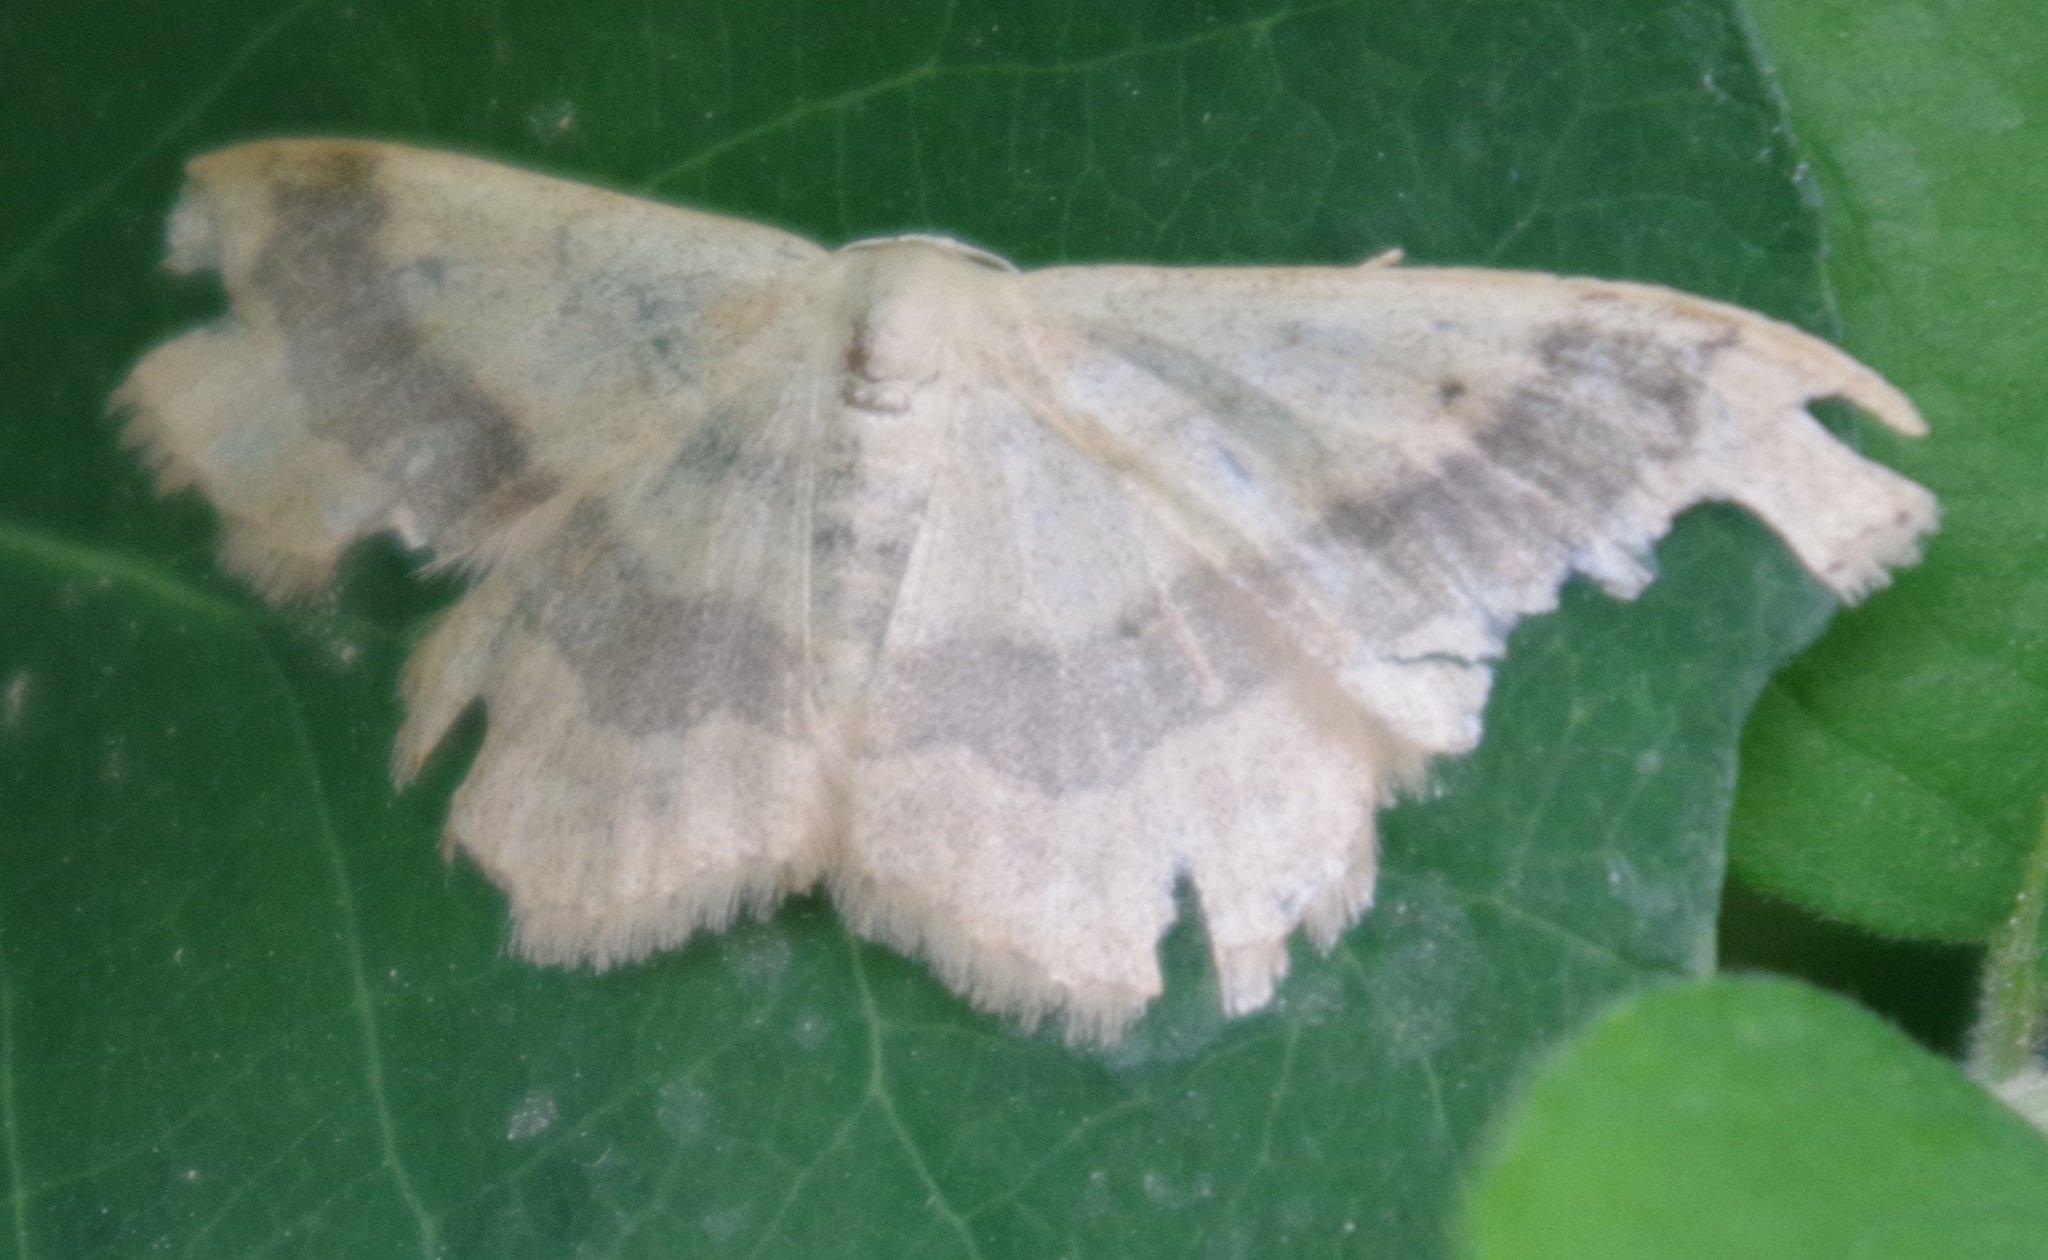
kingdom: Animalia
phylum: Arthropoda
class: Insecta
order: Lepidoptera
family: Geometridae
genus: Idaea
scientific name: Idaea aversata
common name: Riband wave
